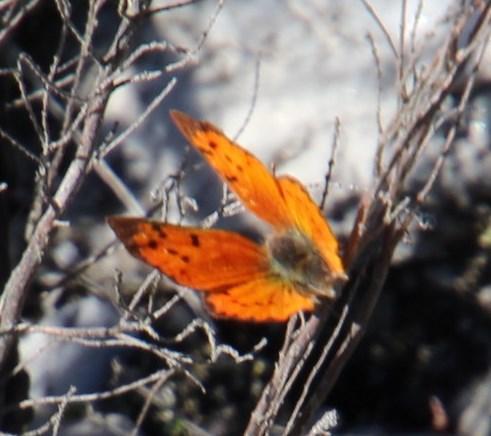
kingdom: Animalia
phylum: Arthropoda
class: Insecta
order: Lepidoptera
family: Lycaenidae
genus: Zeritis
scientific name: Zeritis chrysaor
